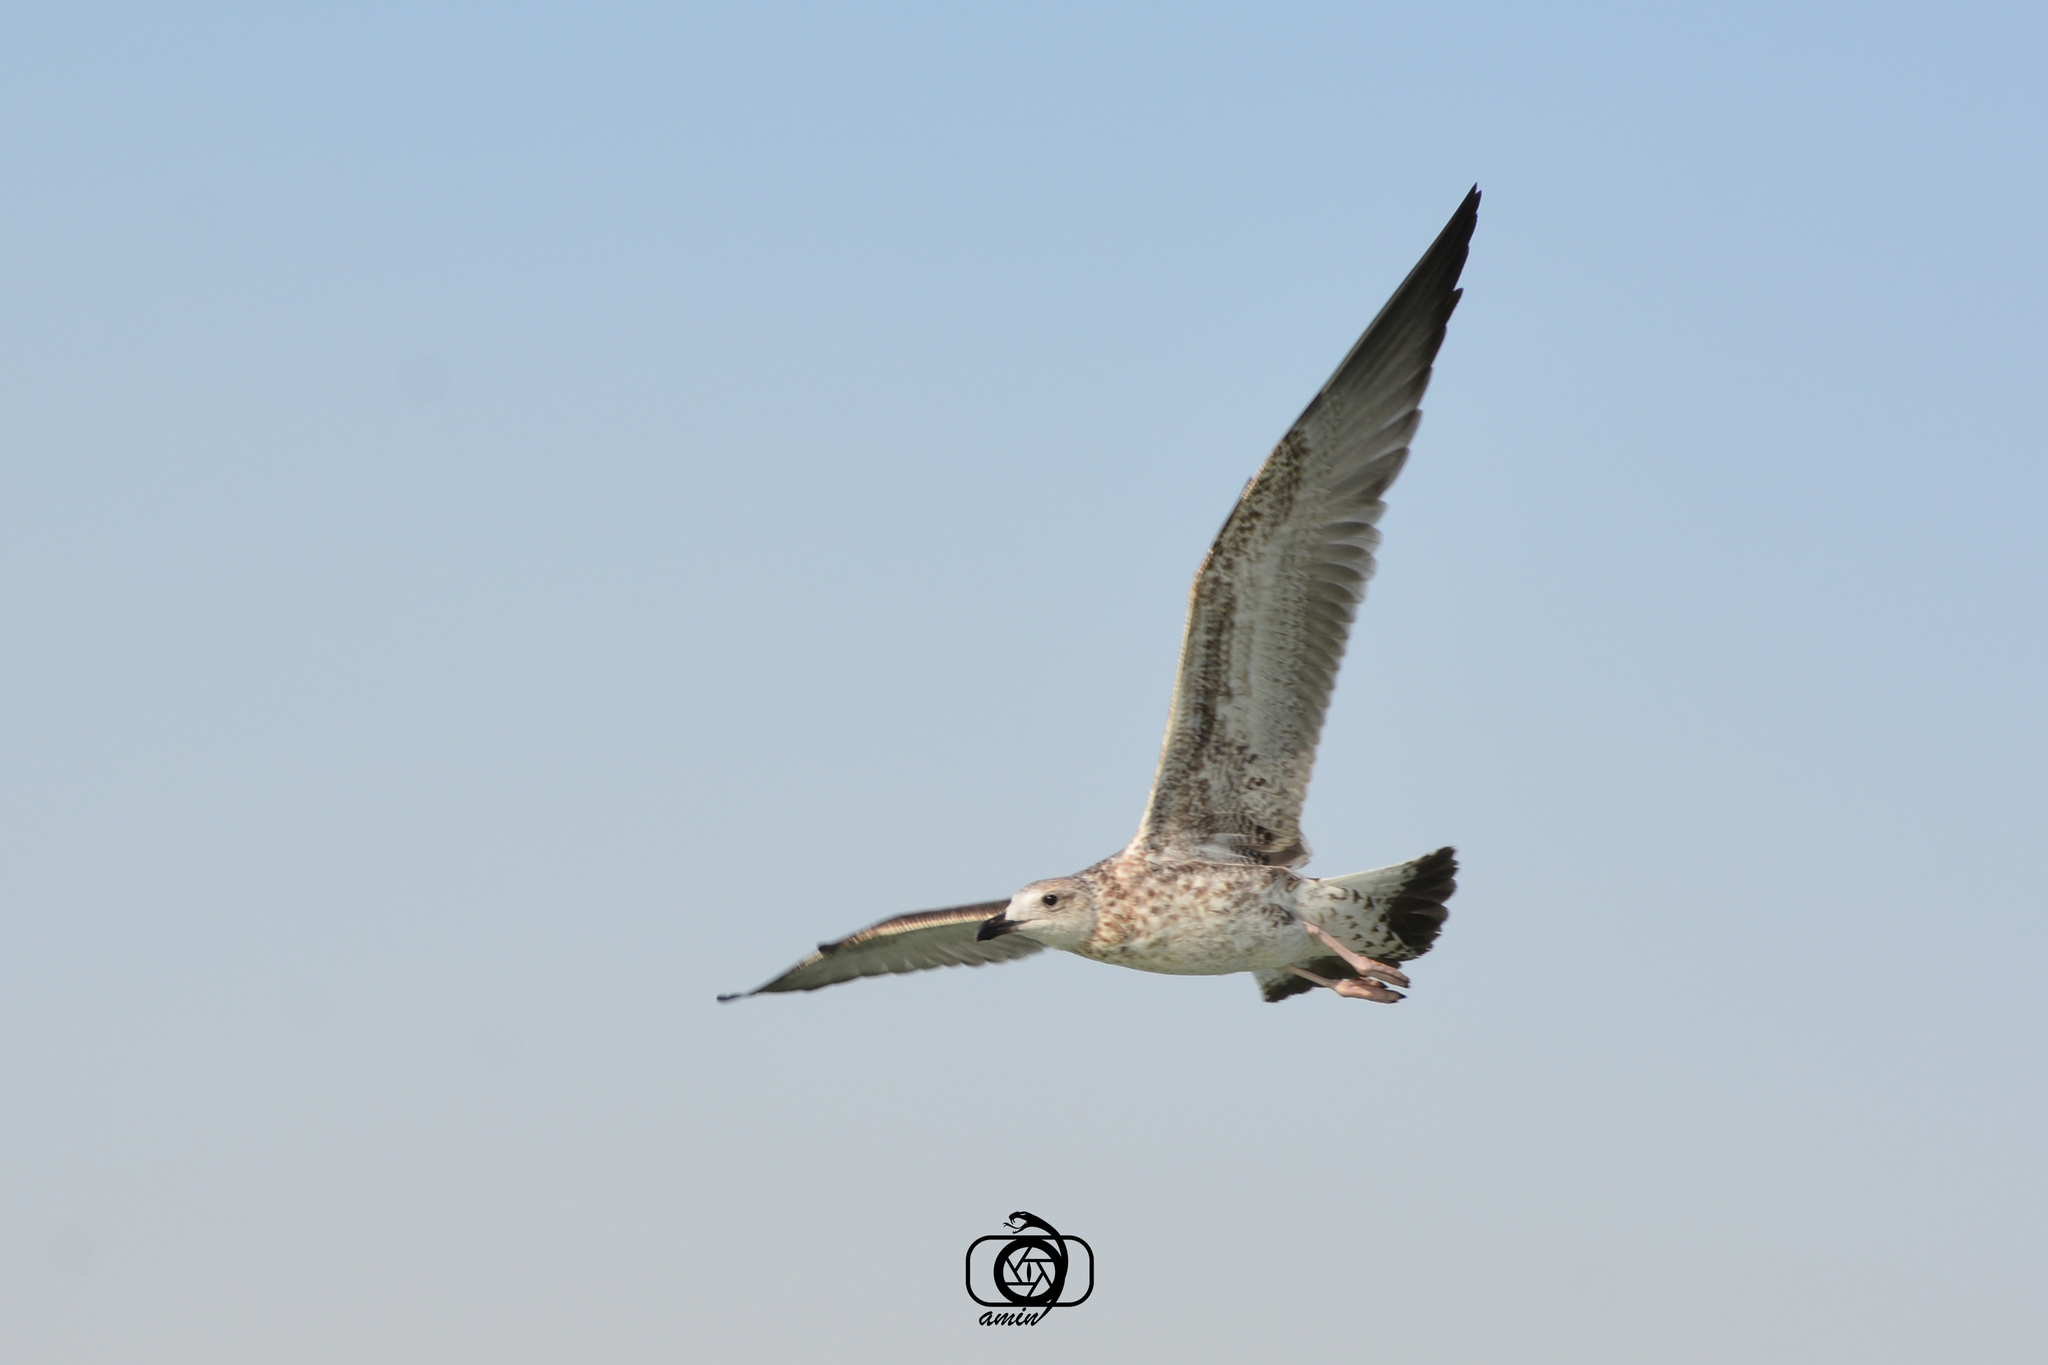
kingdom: Animalia
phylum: Chordata
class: Aves
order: Charadriiformes
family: Laridae
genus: Larus
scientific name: Larus fuscus
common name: Lesser black-backed gull
